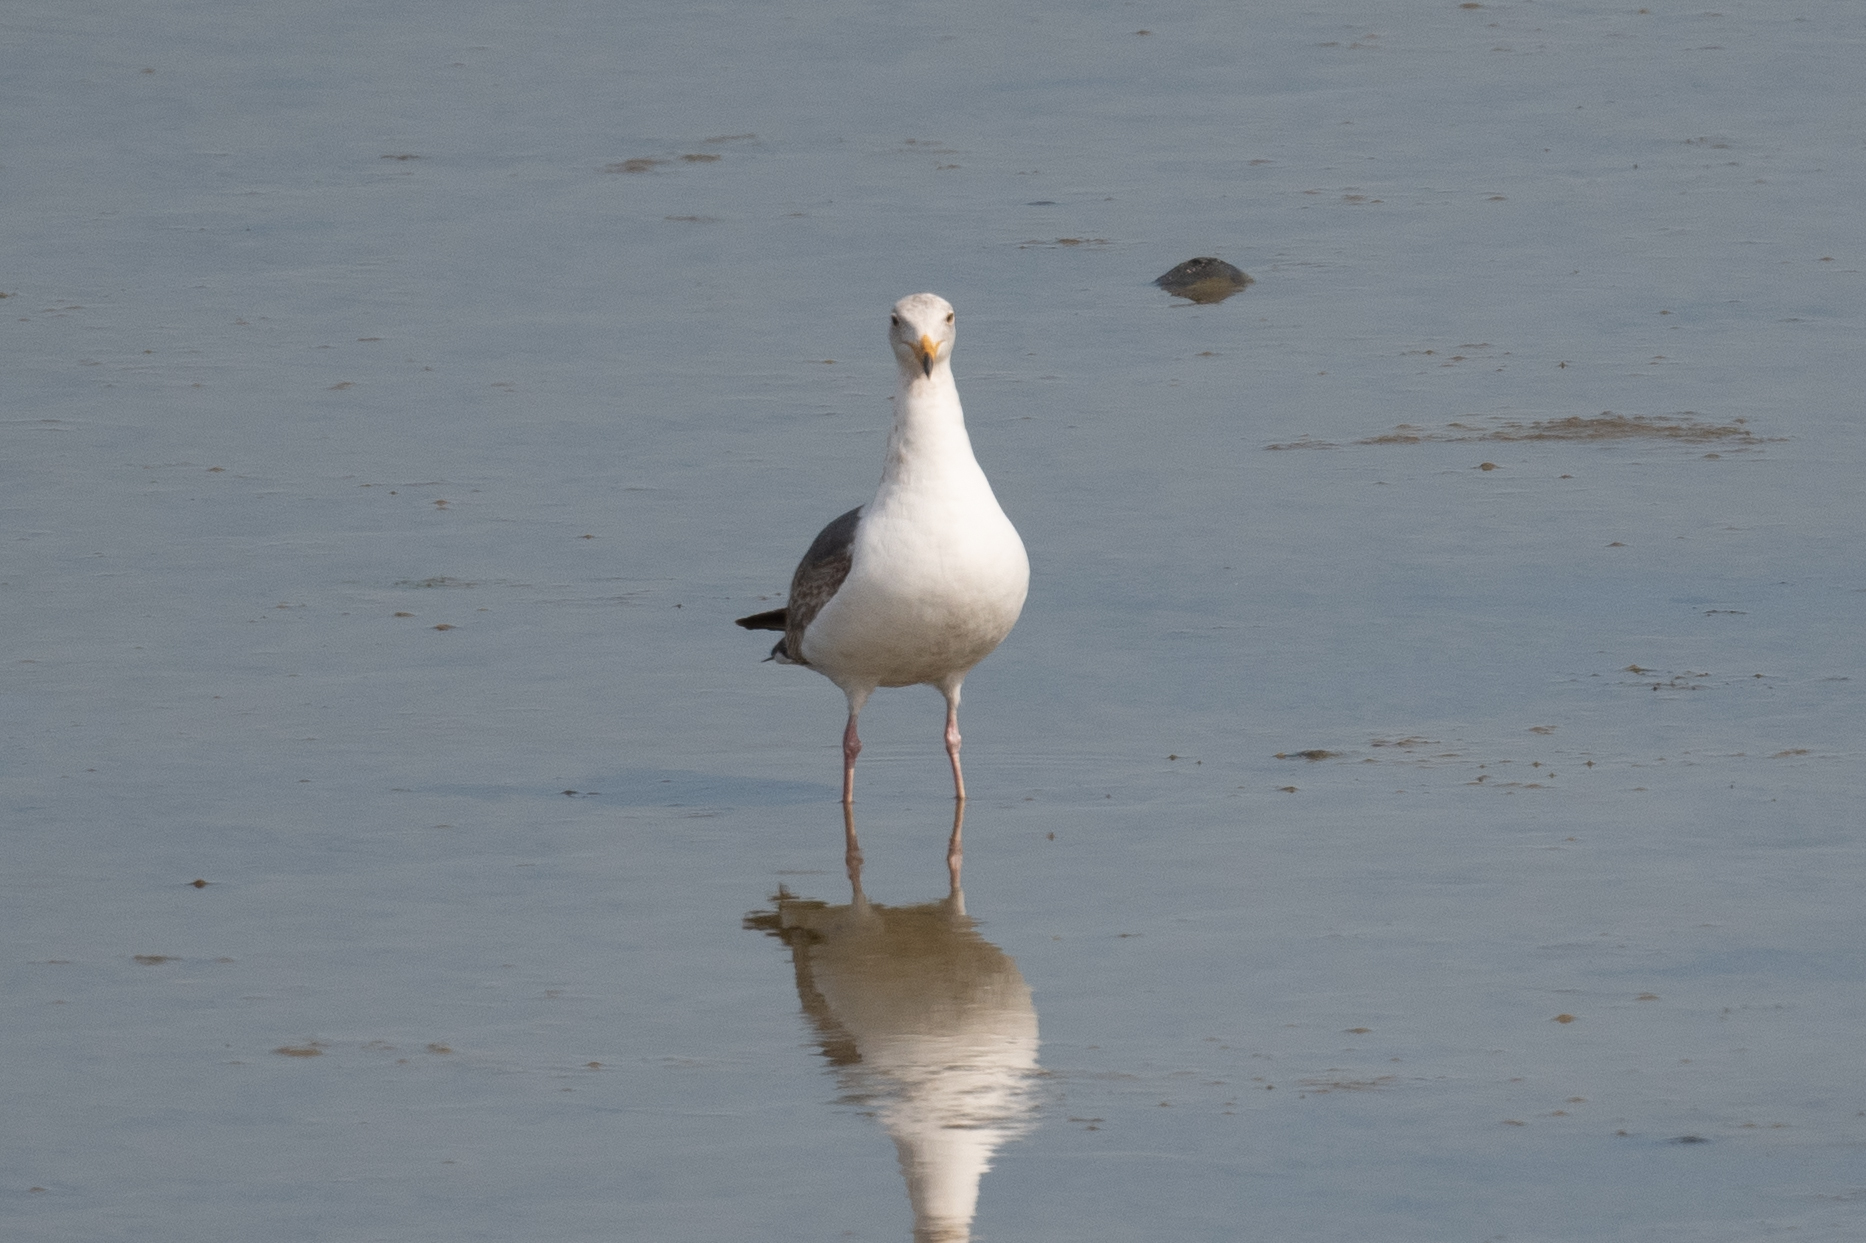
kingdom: Animalia
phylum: Chordata
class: Aves
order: Charadriiformes
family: Laridae
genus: Larus
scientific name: Larus occidentalis
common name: Western gull
